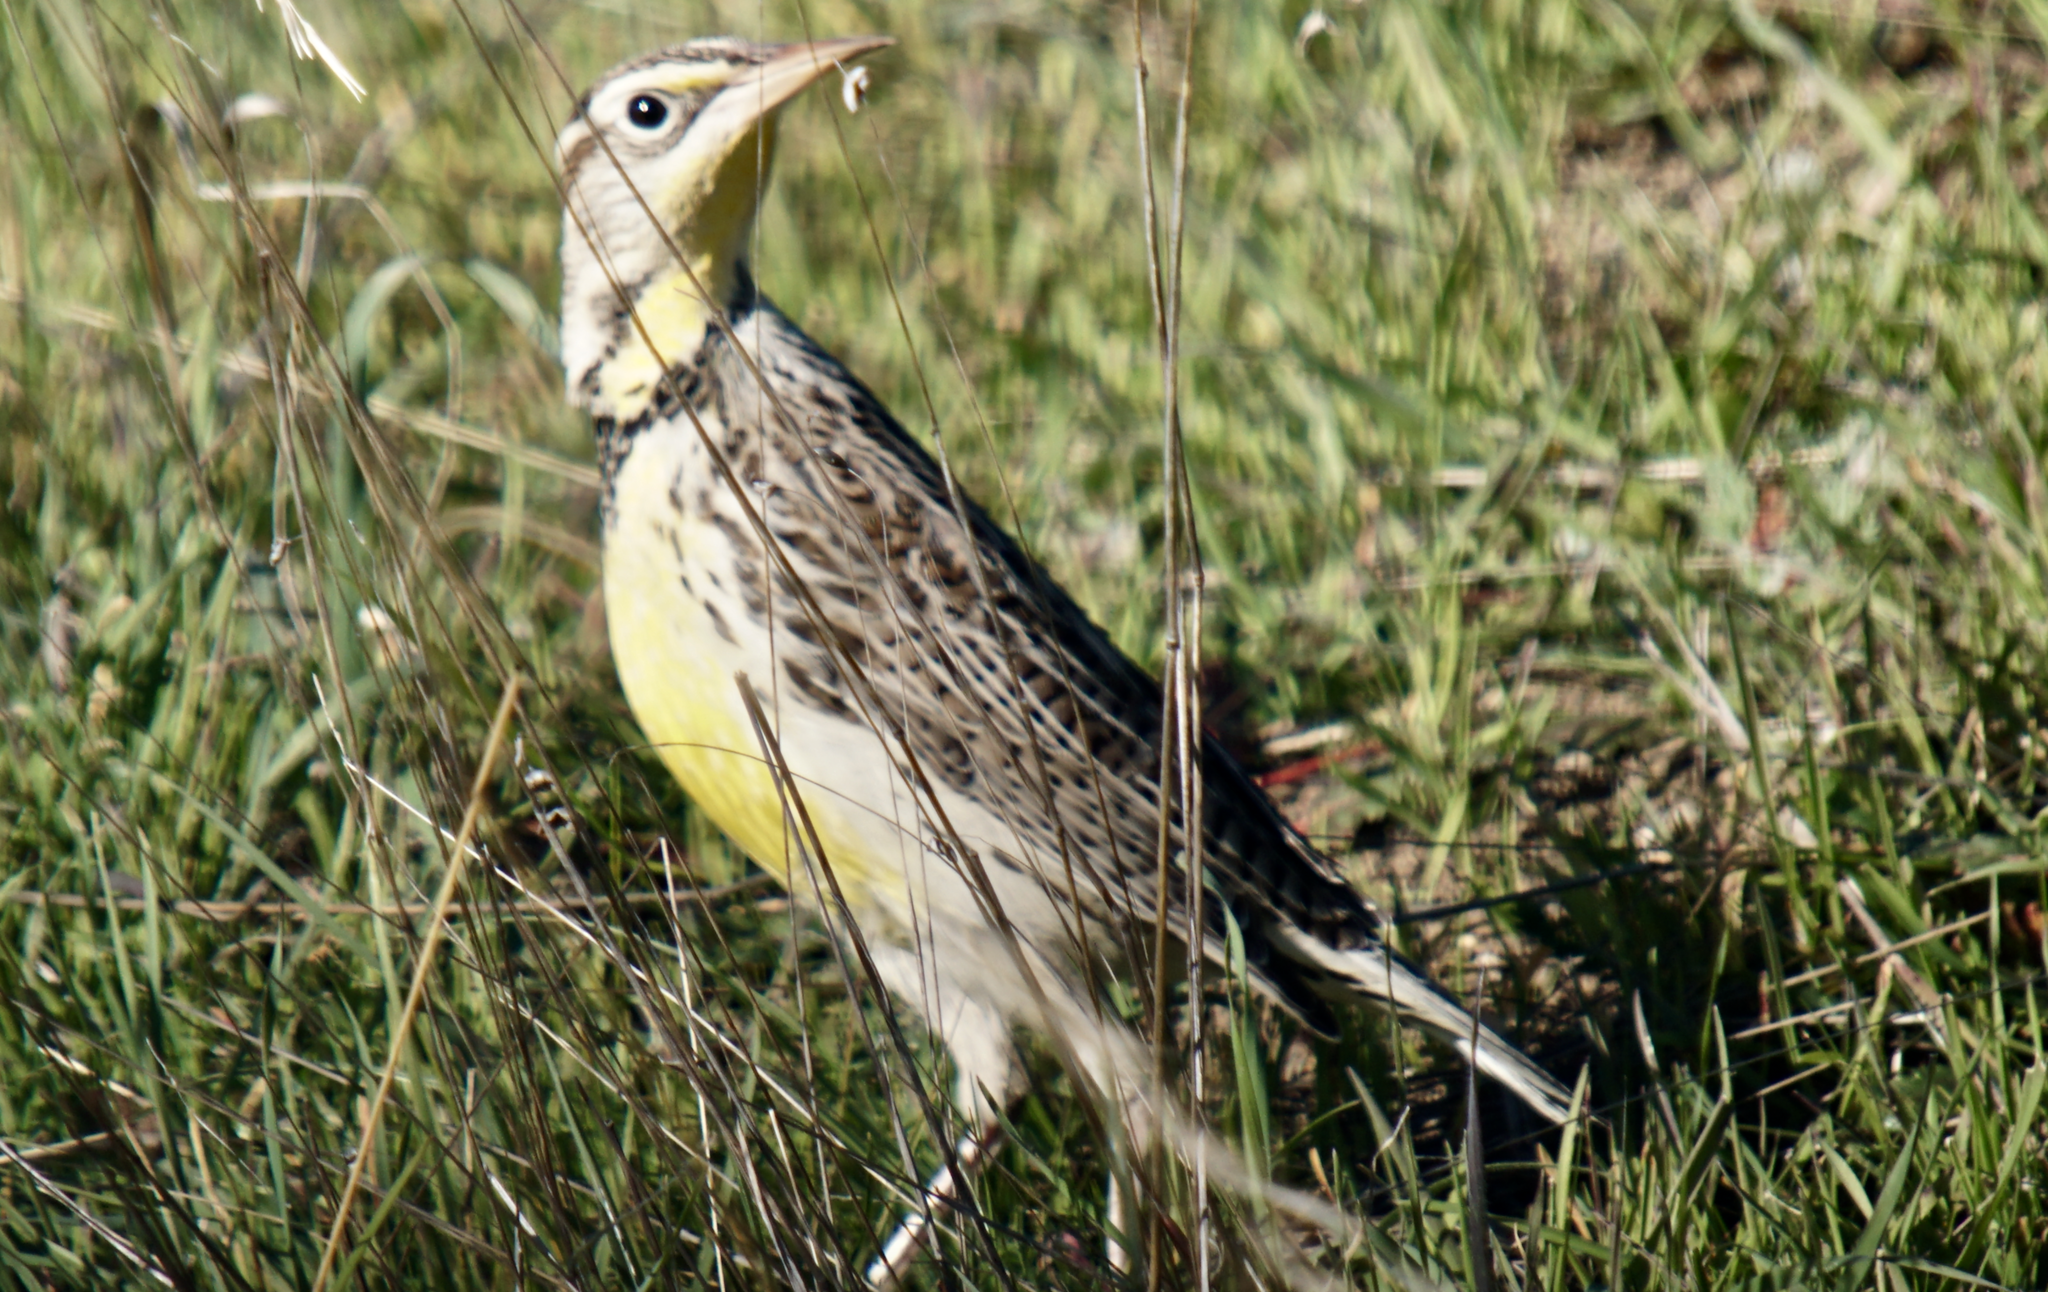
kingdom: Animalia
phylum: Chordata
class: Aves
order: Passeriformes
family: Icteridae
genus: Sturnella
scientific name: Sturnella neglecta
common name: Western meadowlark
